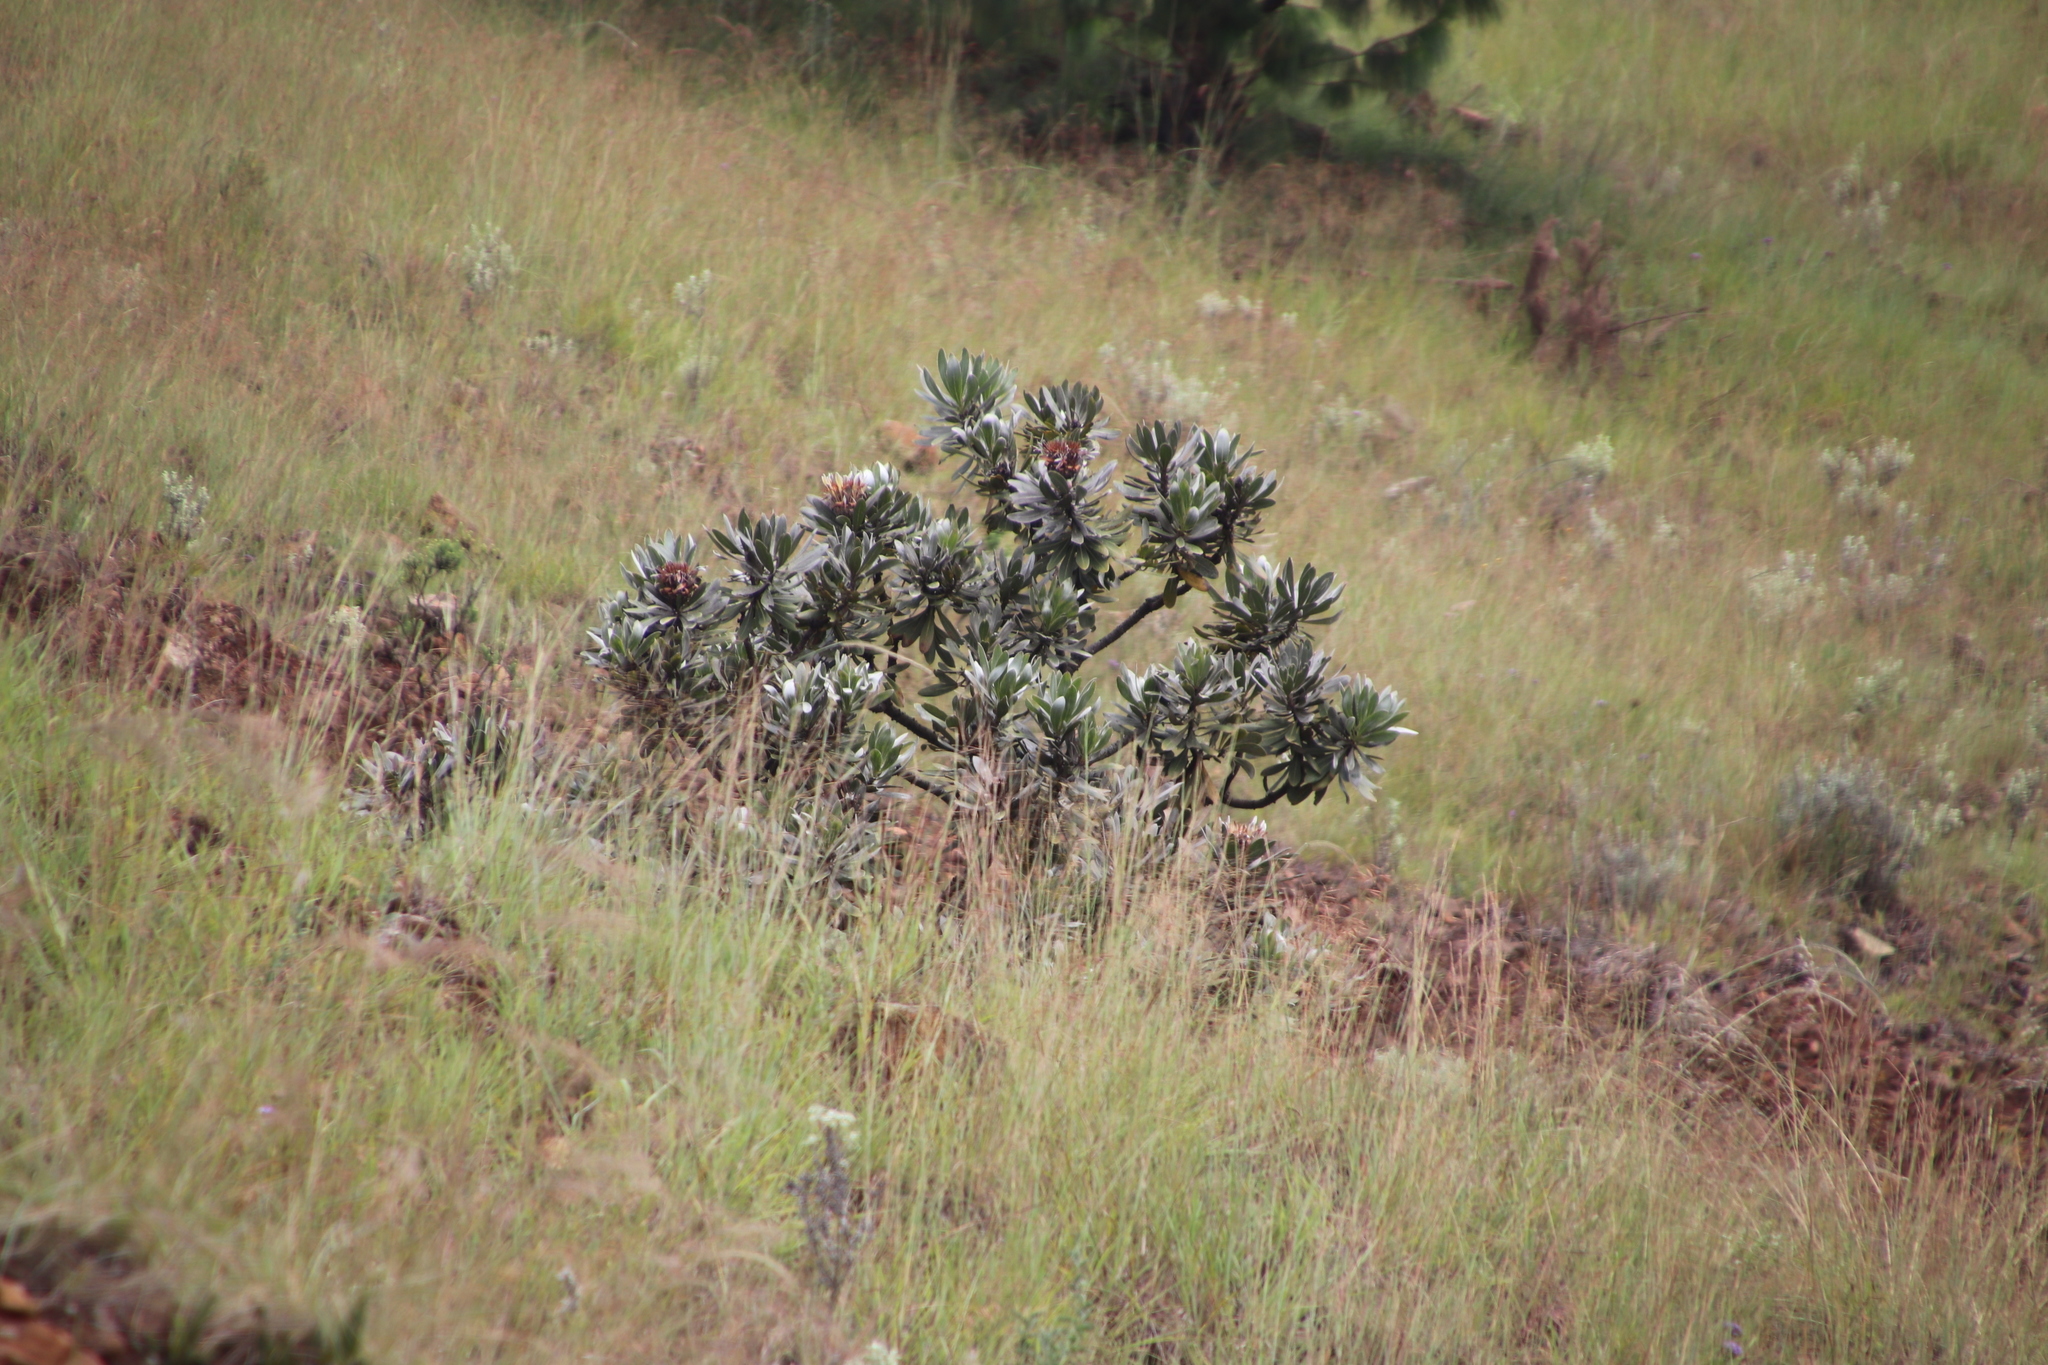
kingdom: Plantae
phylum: Tracheophyta
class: Magnoliopsida
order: Proteales
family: Proteaceae
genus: Protea
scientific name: Protea roupelliae
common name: Silver sugarbush
